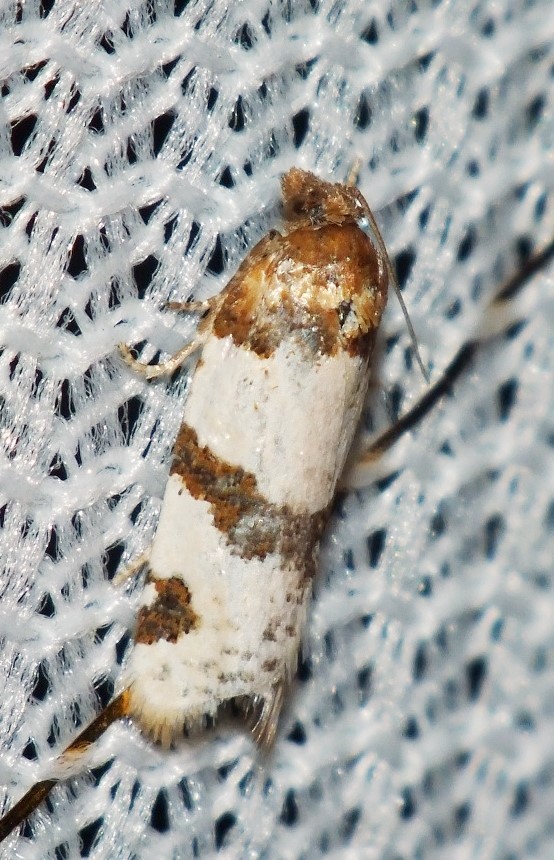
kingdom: Animalia
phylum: Arthropoda
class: Insecta
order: Lepidoptera
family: Tortricidae
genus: Periclepsis
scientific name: Periclepsis cinctana
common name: Dover twist
